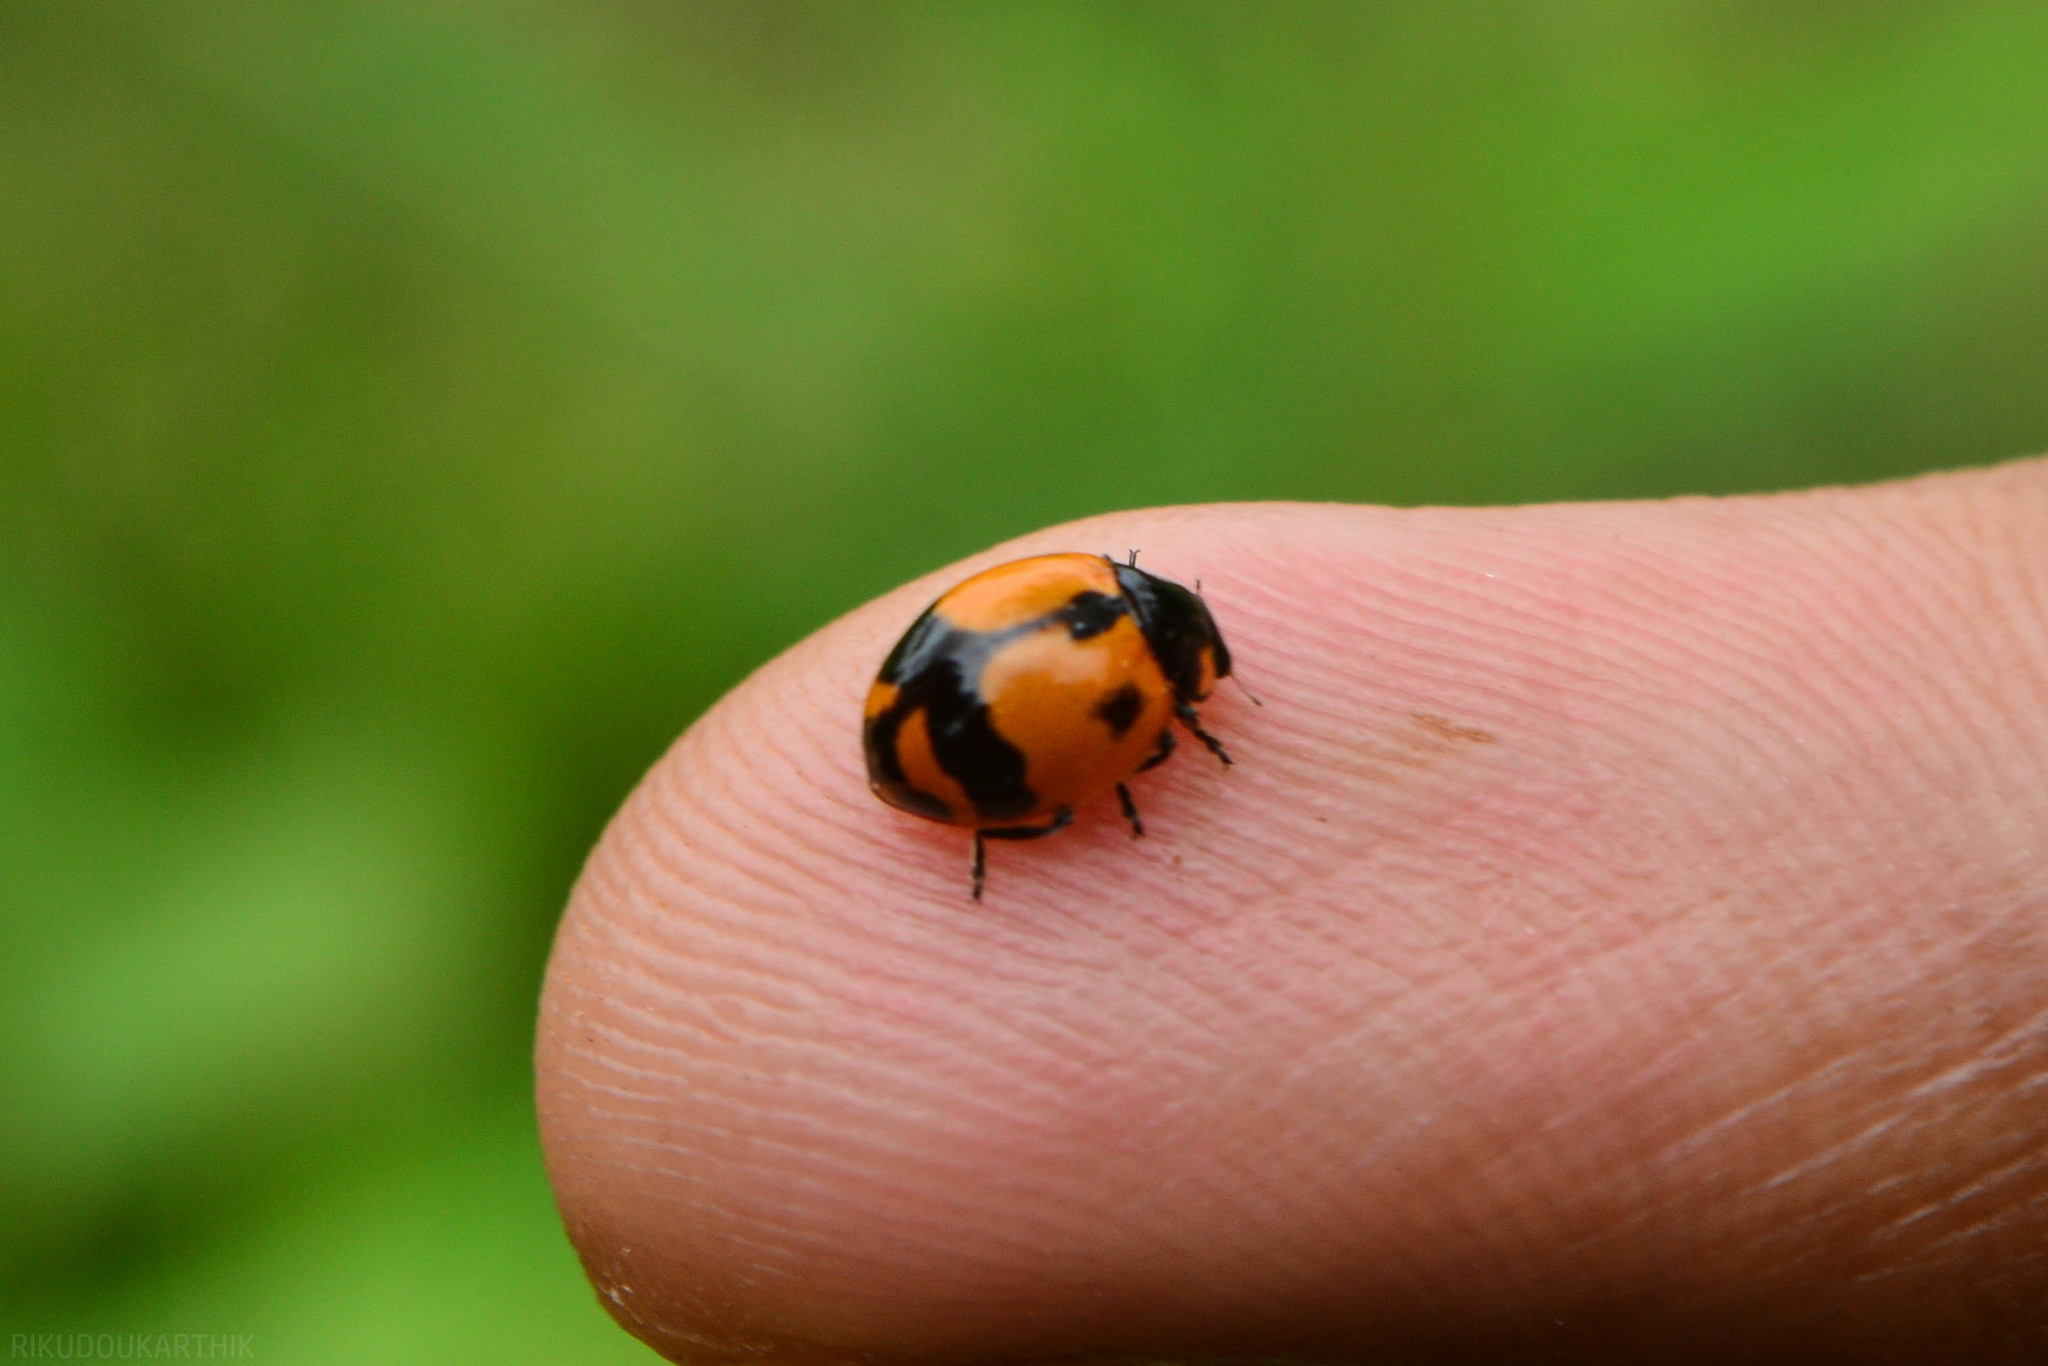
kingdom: Animalia
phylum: Arthropoda
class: Insecta
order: Coleoptera
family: Coccinellidae
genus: Coccinella
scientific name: Coccinella transversalis
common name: Transverse lady beetle
